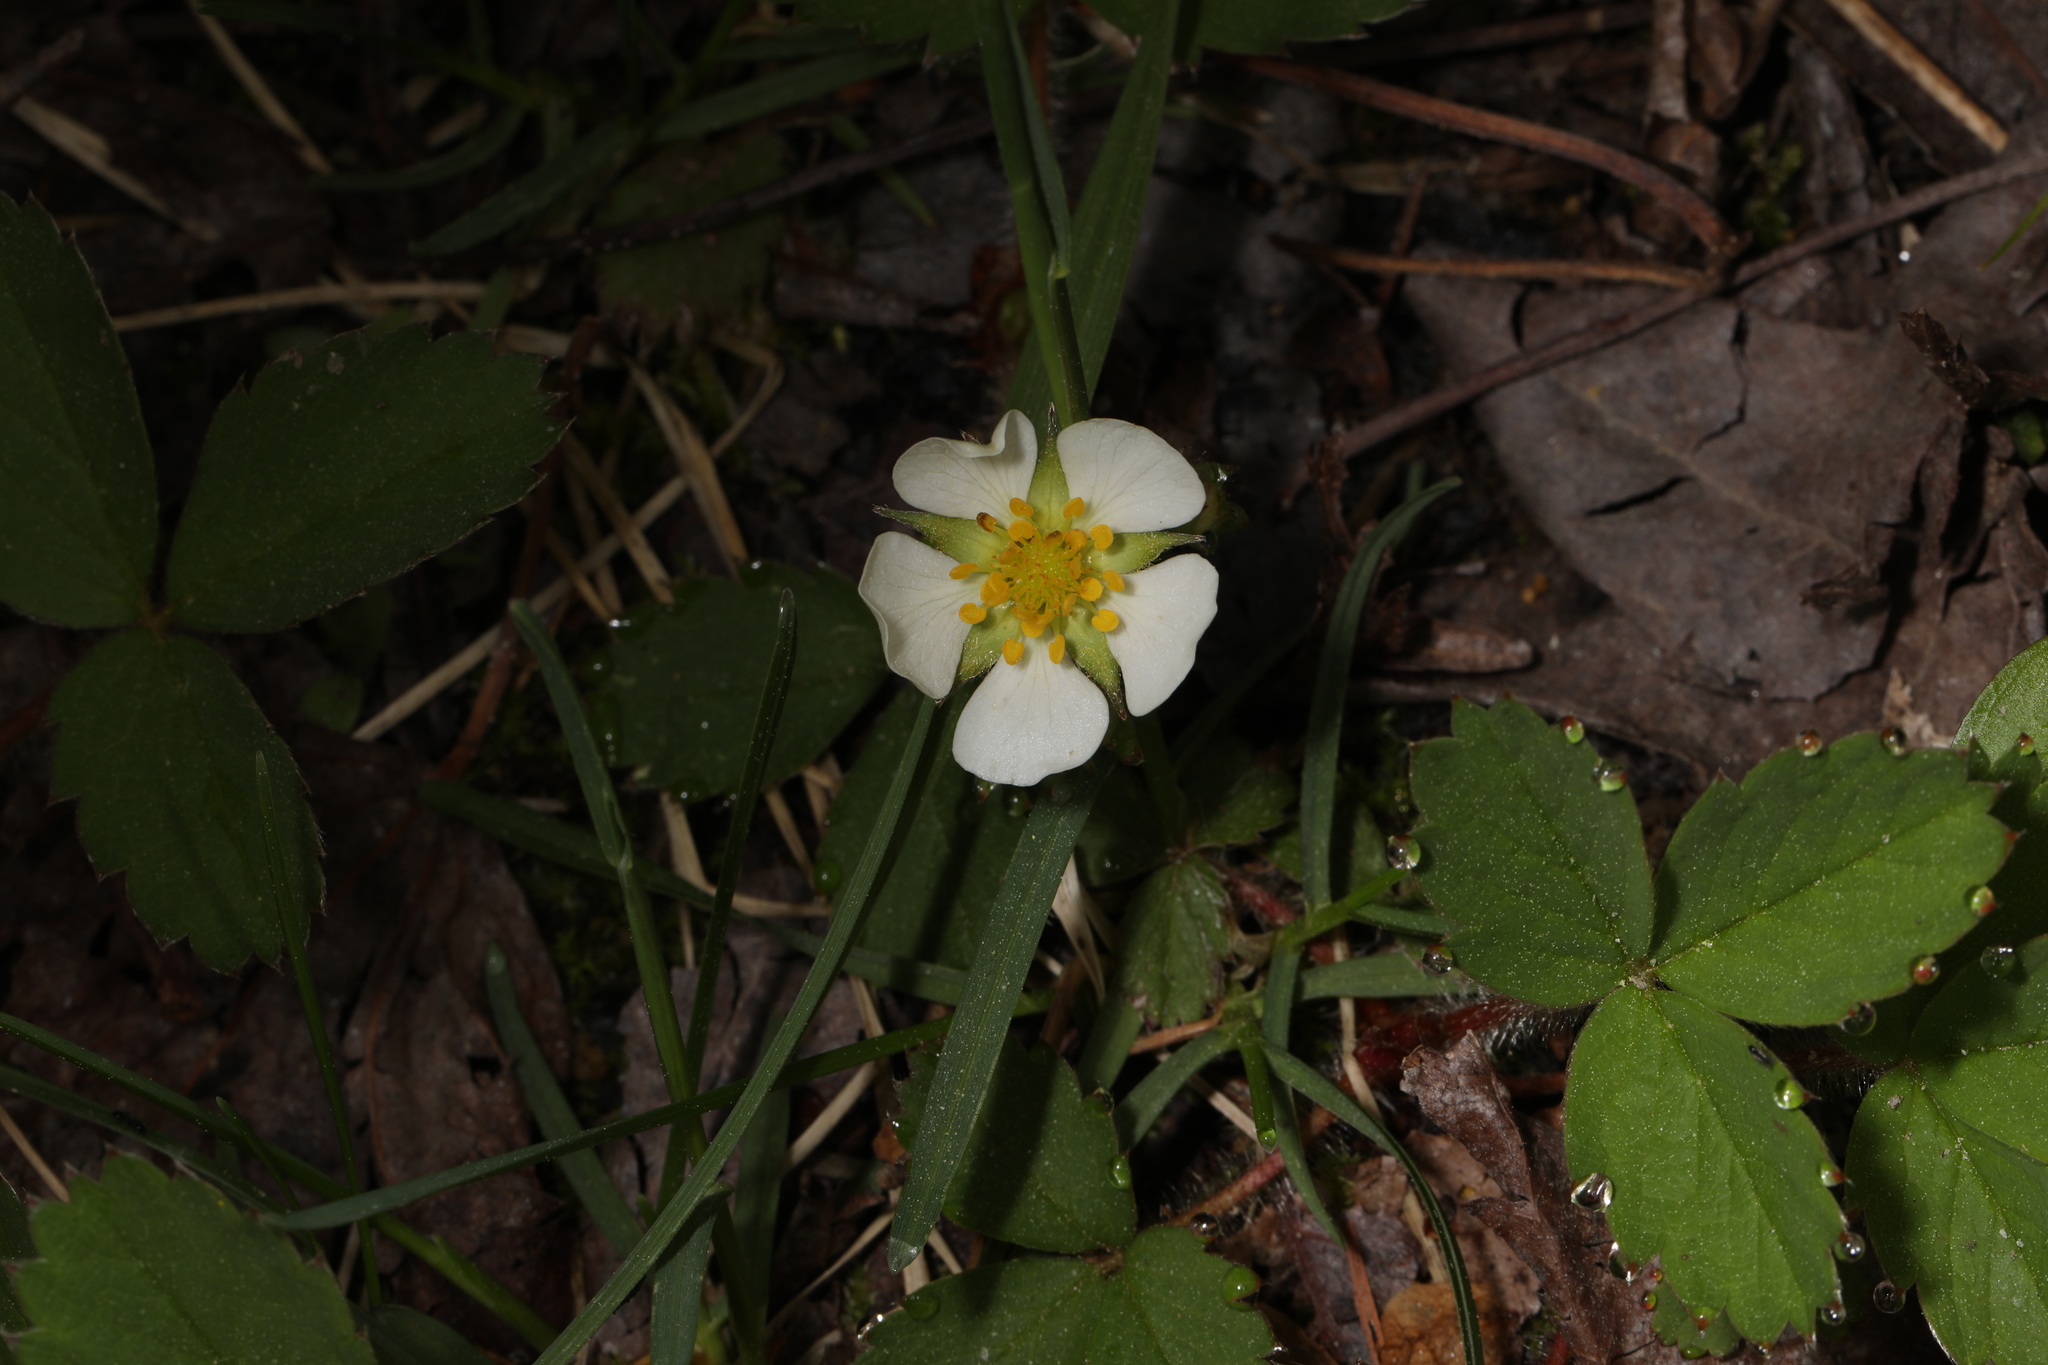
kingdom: Plantae
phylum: Tracheophyta
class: Magnoliopsida
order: Rosales
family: Rosaceae
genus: Fragaria
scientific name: Fragaria virginiana
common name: Thickleaved wild strawberry
